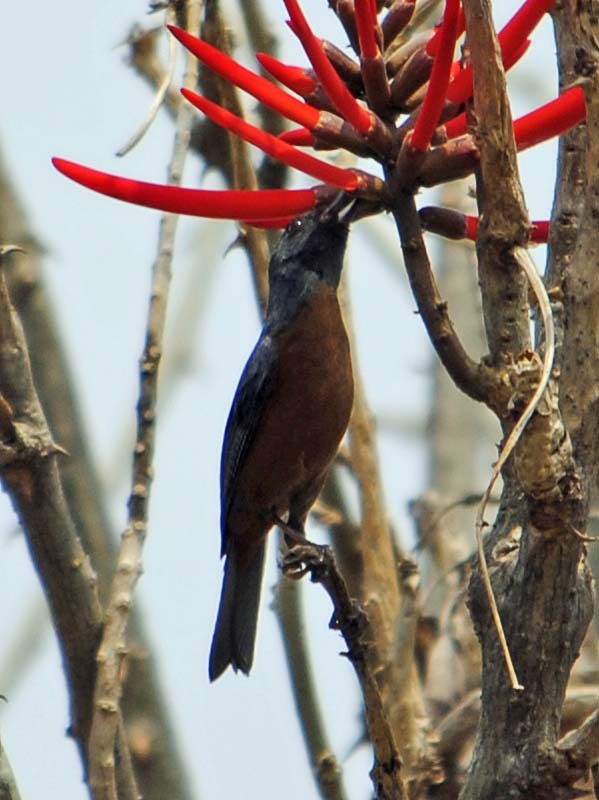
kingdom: Animalia
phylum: Chordata
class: Aves
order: Passeriformes
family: Thraupidae
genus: Diglossa
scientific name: Diglossa baritula
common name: Cinnamon-bellied flowerpiercer
